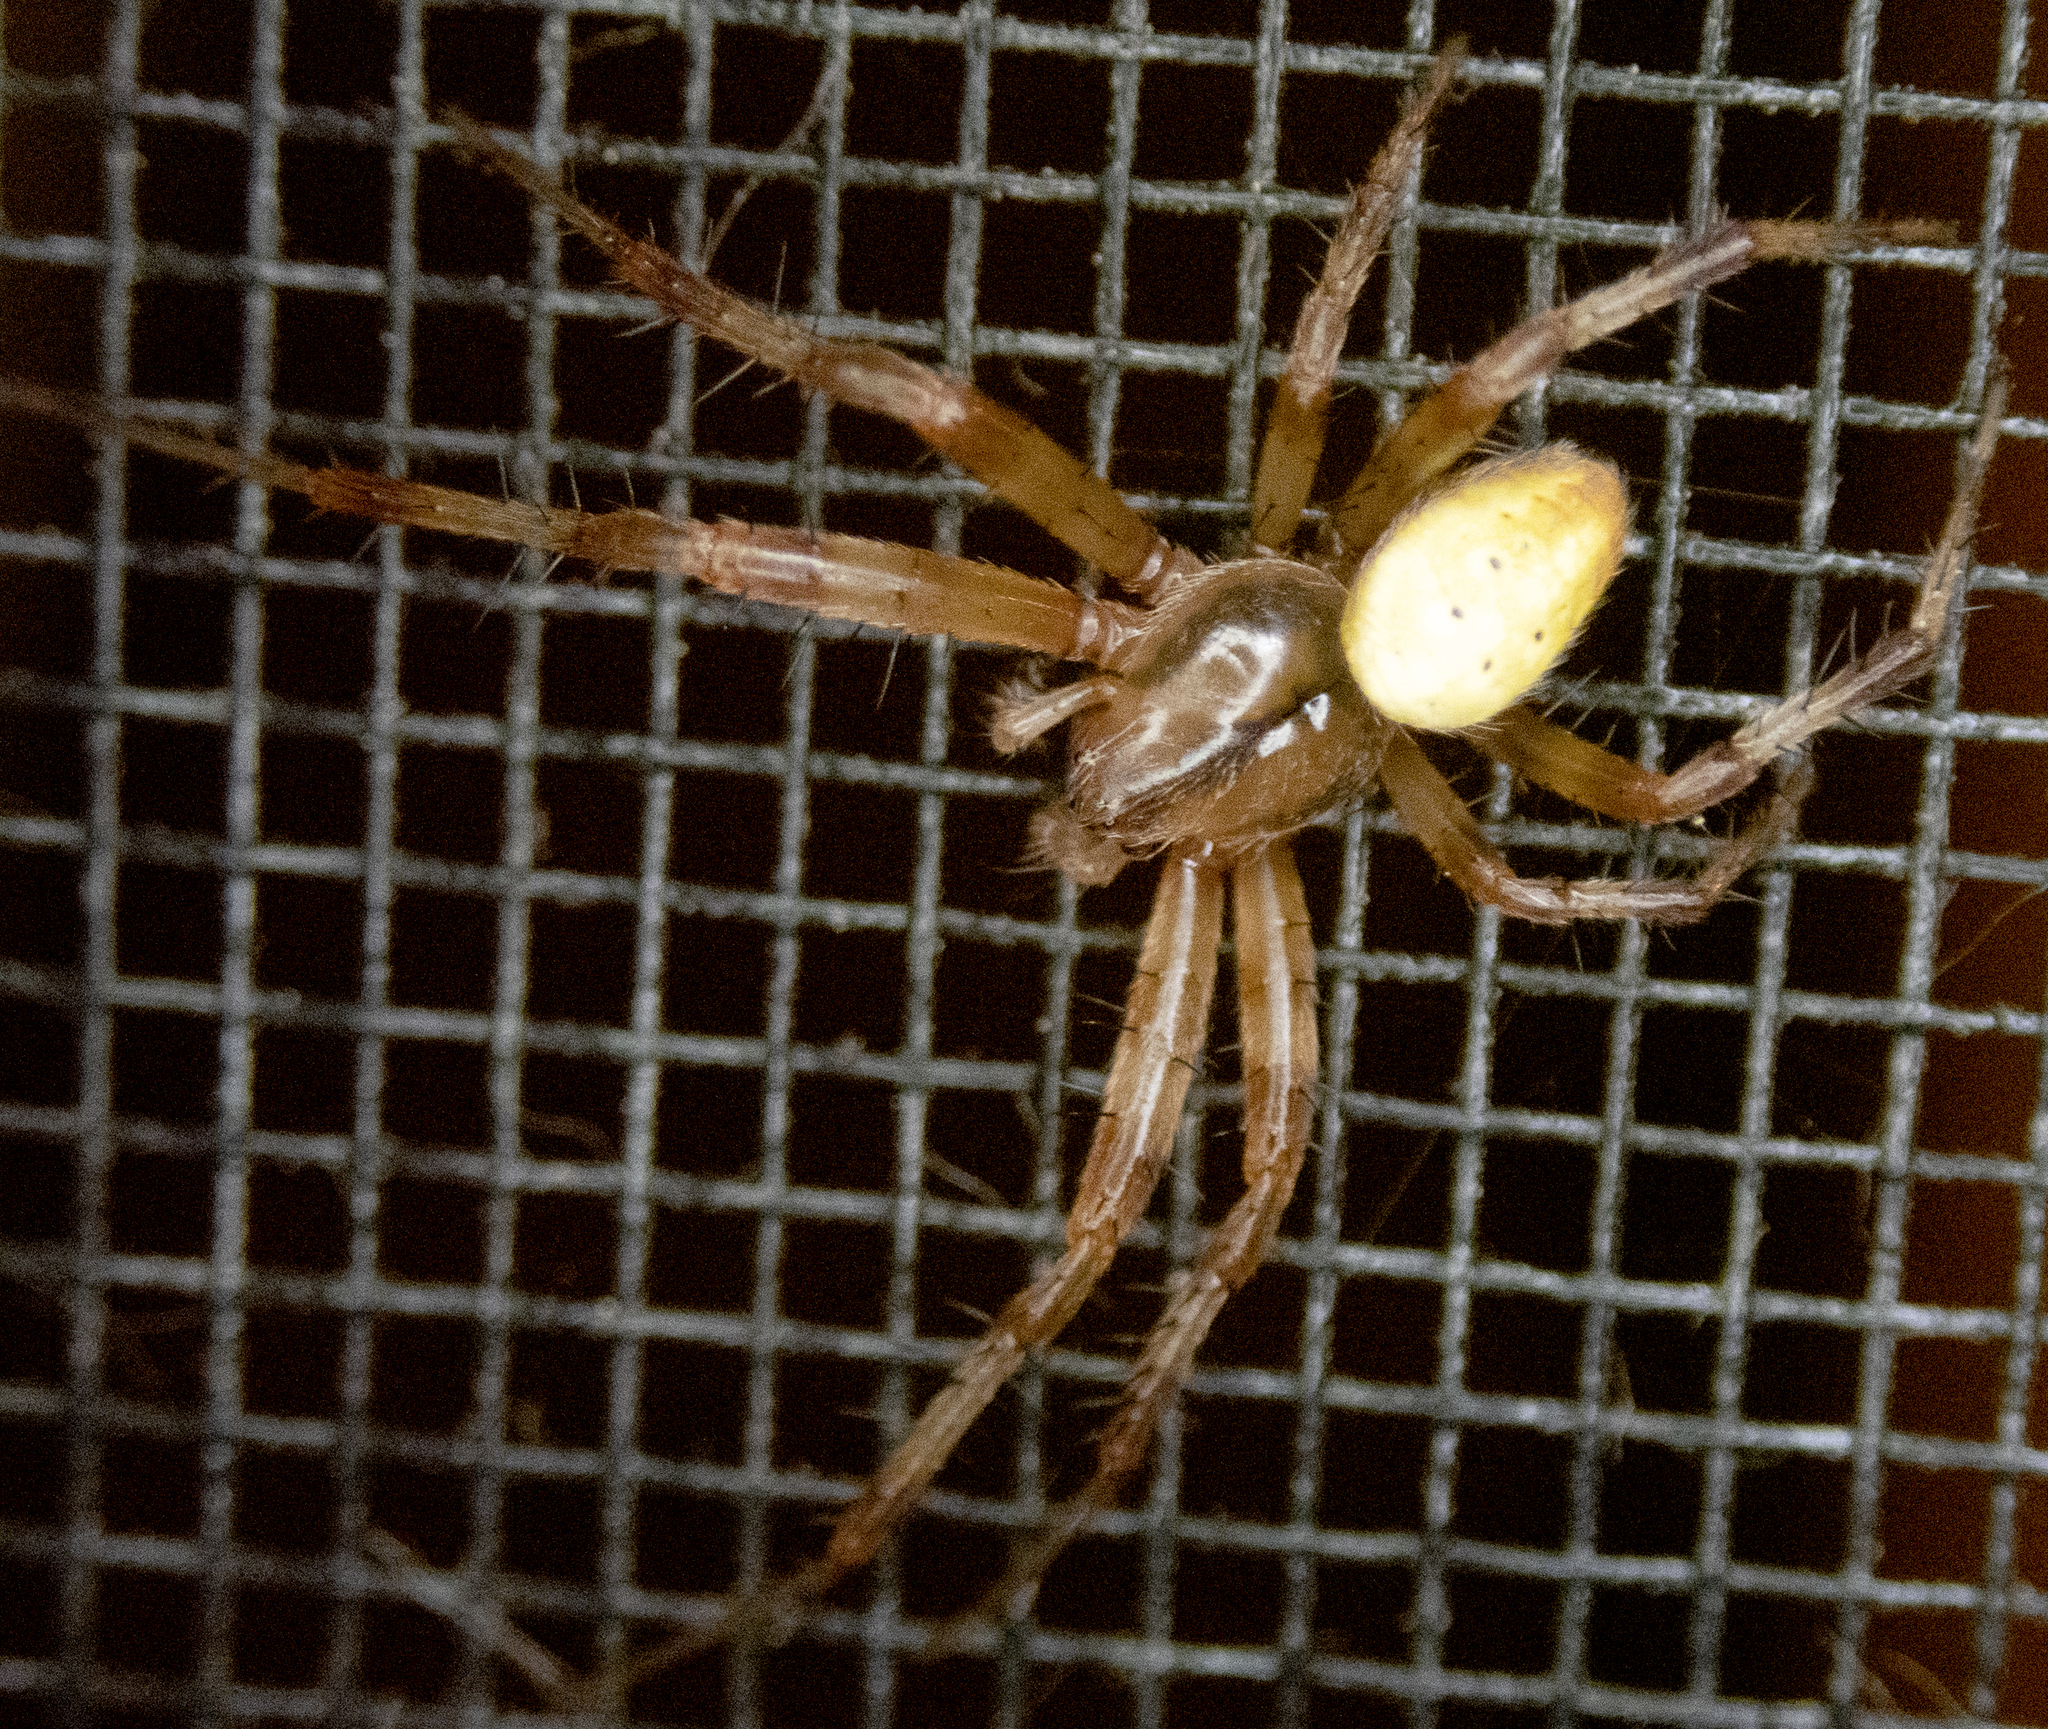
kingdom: Animalia
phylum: Arthropoda
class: Arachnida
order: Araneae
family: Araneidae
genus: Araniella
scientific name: Araniella displicata
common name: Sixspotted orb weaver
